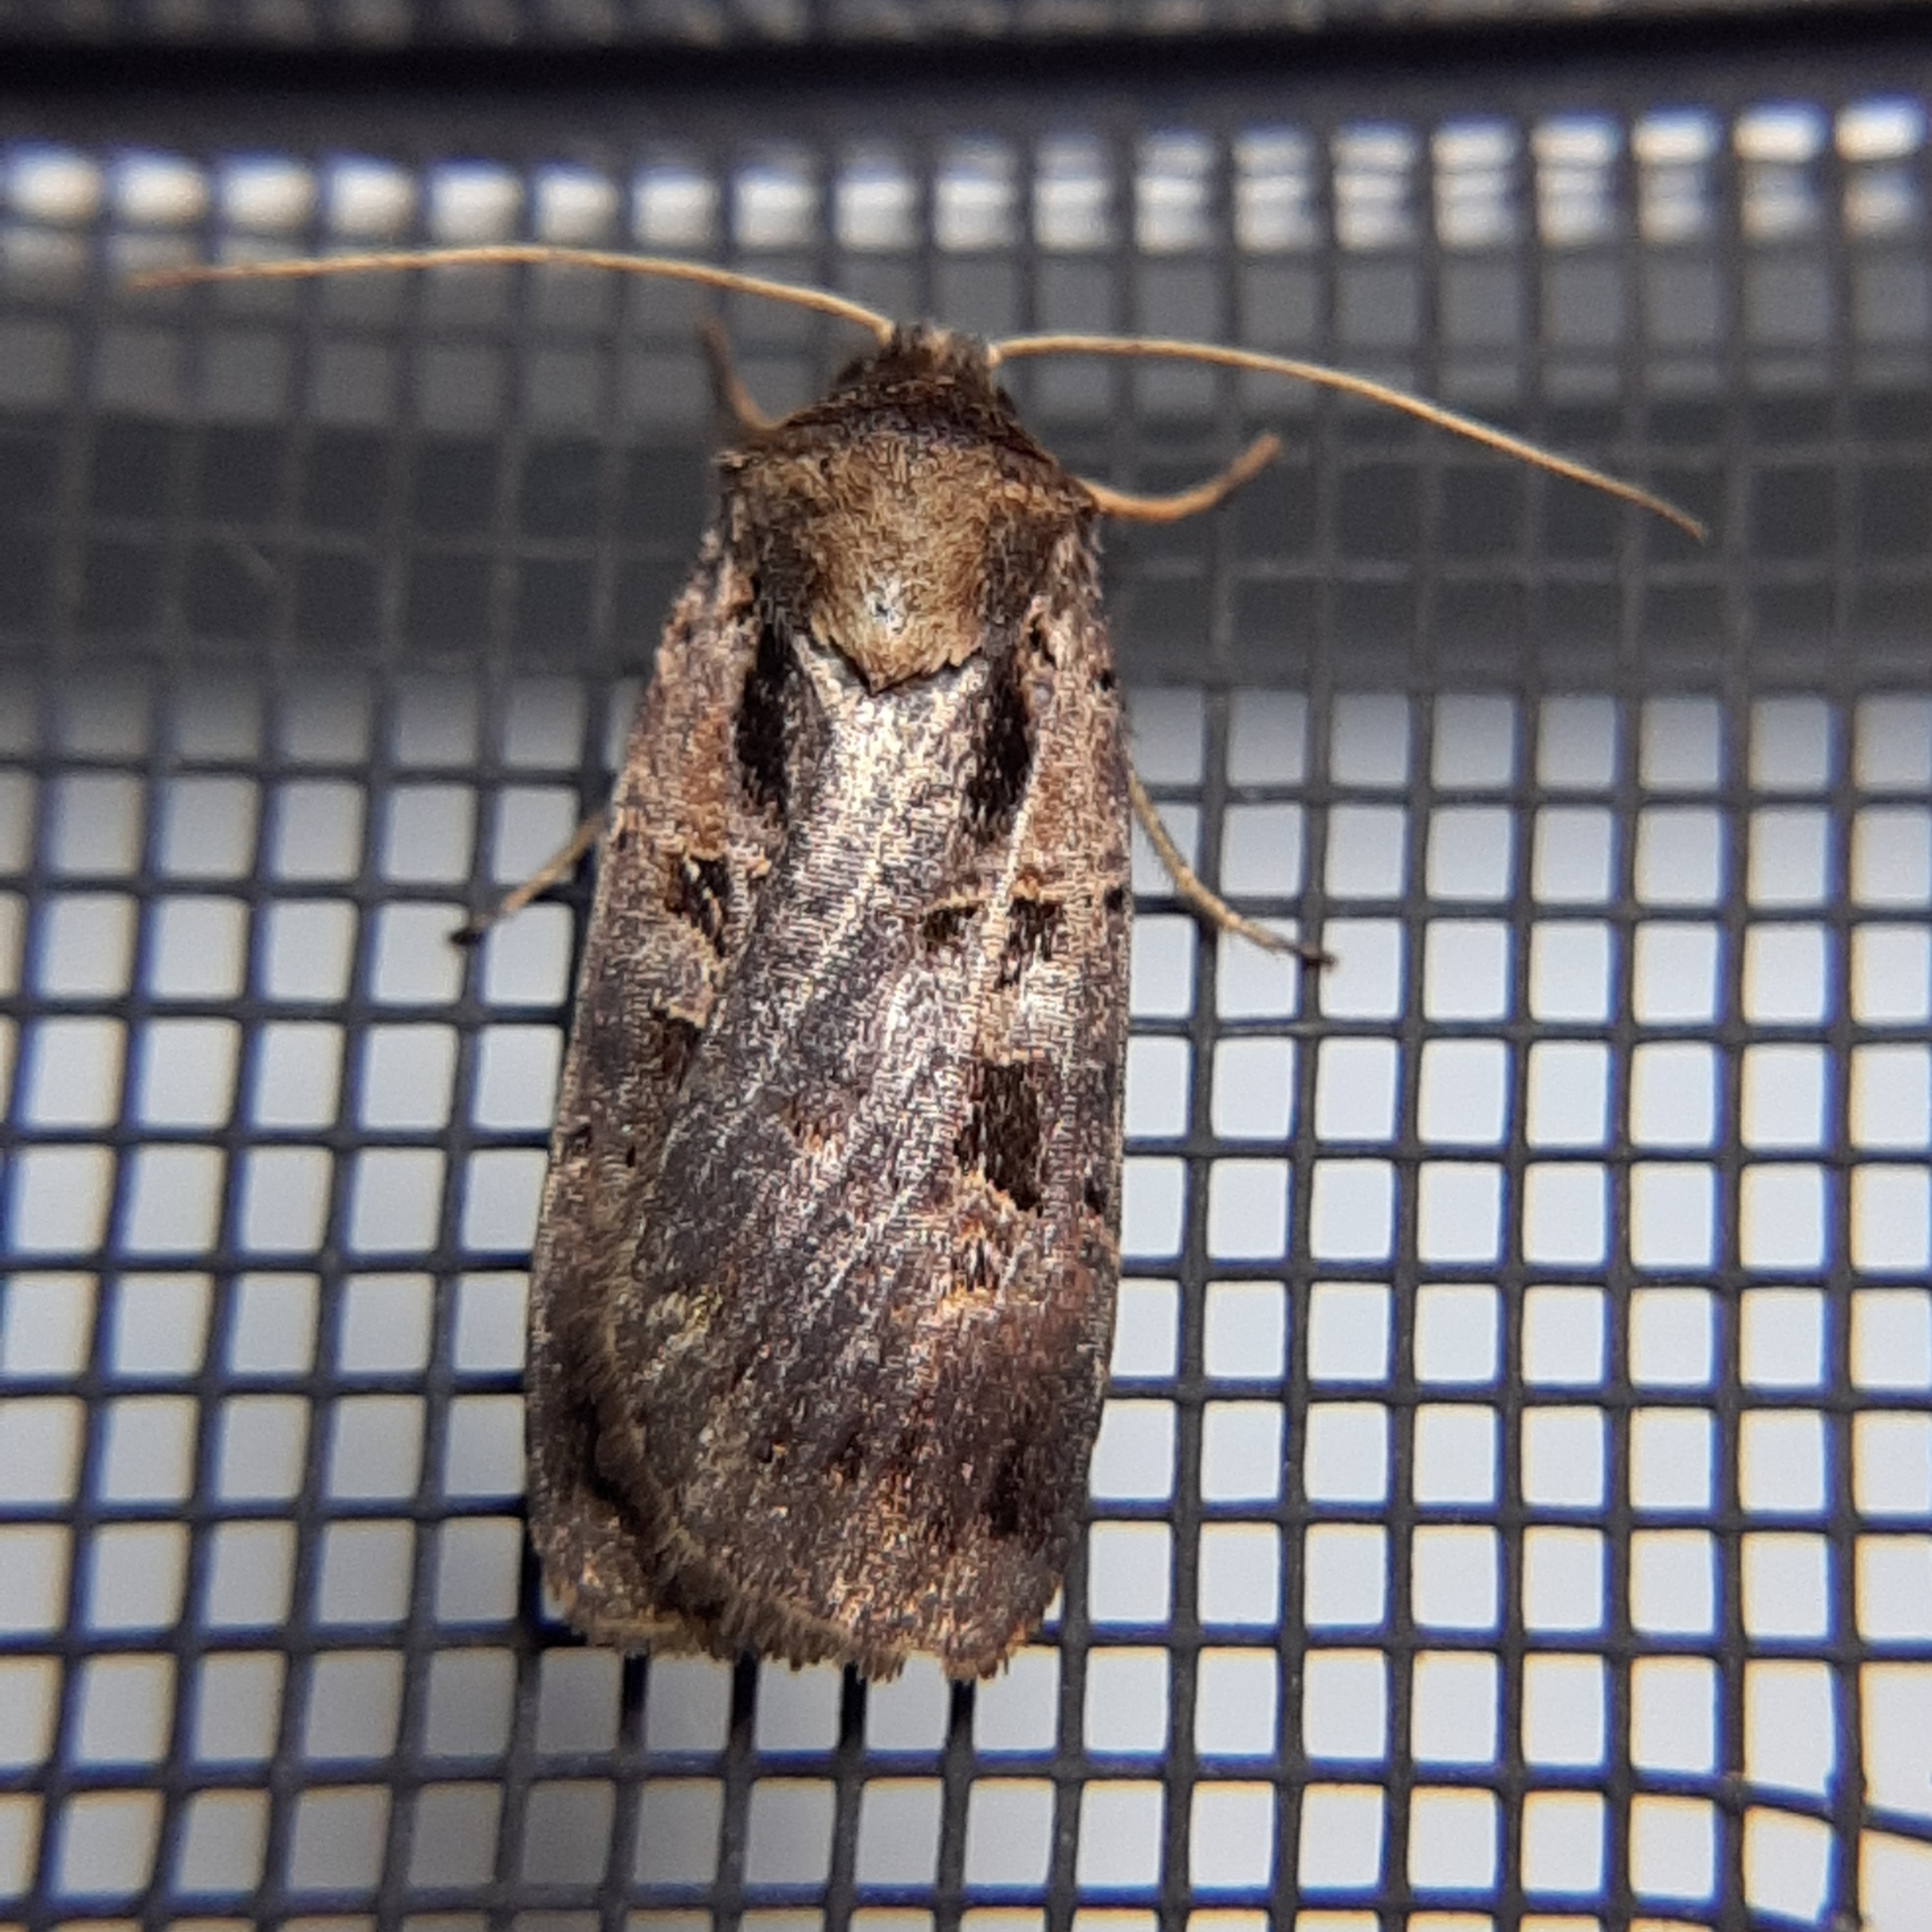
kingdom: Animalia
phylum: Arthropoda
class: Insecta
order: Lepidoptera
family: Noctuidae
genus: Pseudohermonassa
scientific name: Pseudohermonassa bicarnea
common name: Pink spotted dart
